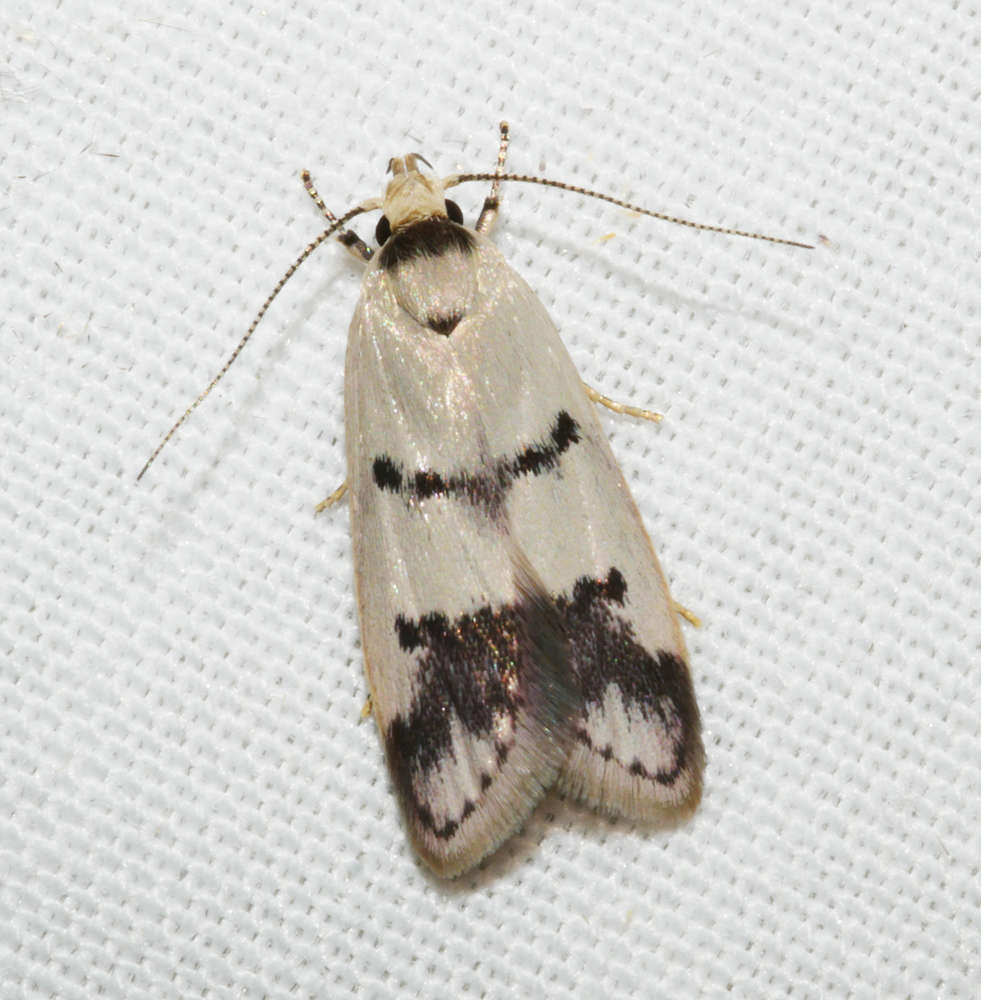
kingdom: Animalia
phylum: Arthropoda
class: Insecta
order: Lepidoptera
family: Oecophoridae
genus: Compsotropha
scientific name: Compsotropha strophiella
